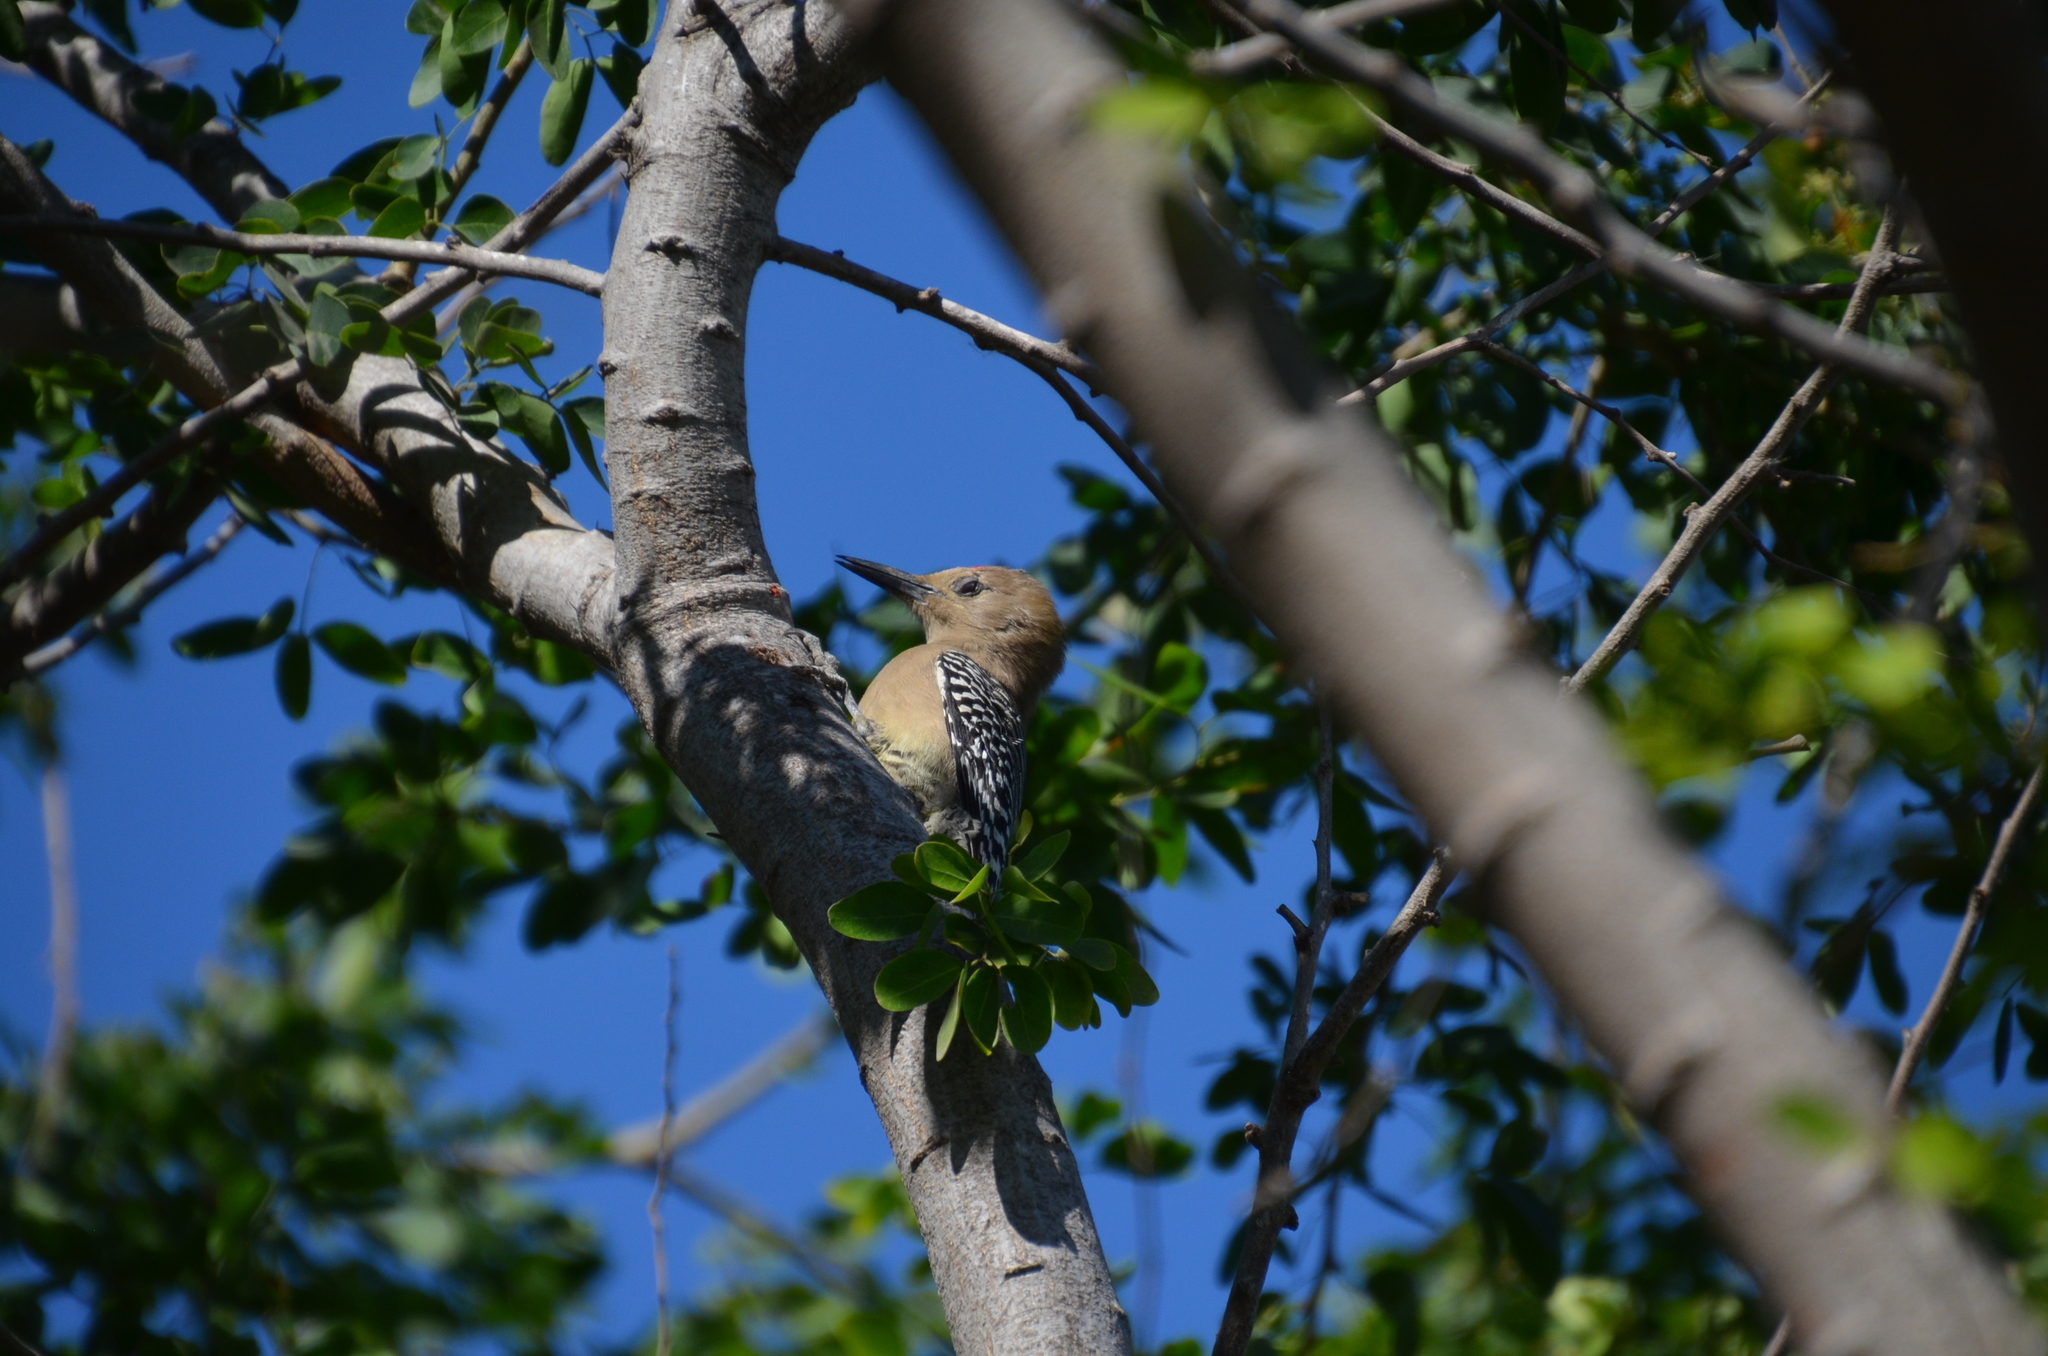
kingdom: Animalia
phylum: Chordata
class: Aves
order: Piciformes
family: Picidae
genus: Melanerpes
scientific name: Melanerpes uropygialis
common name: Gila woodpecker
